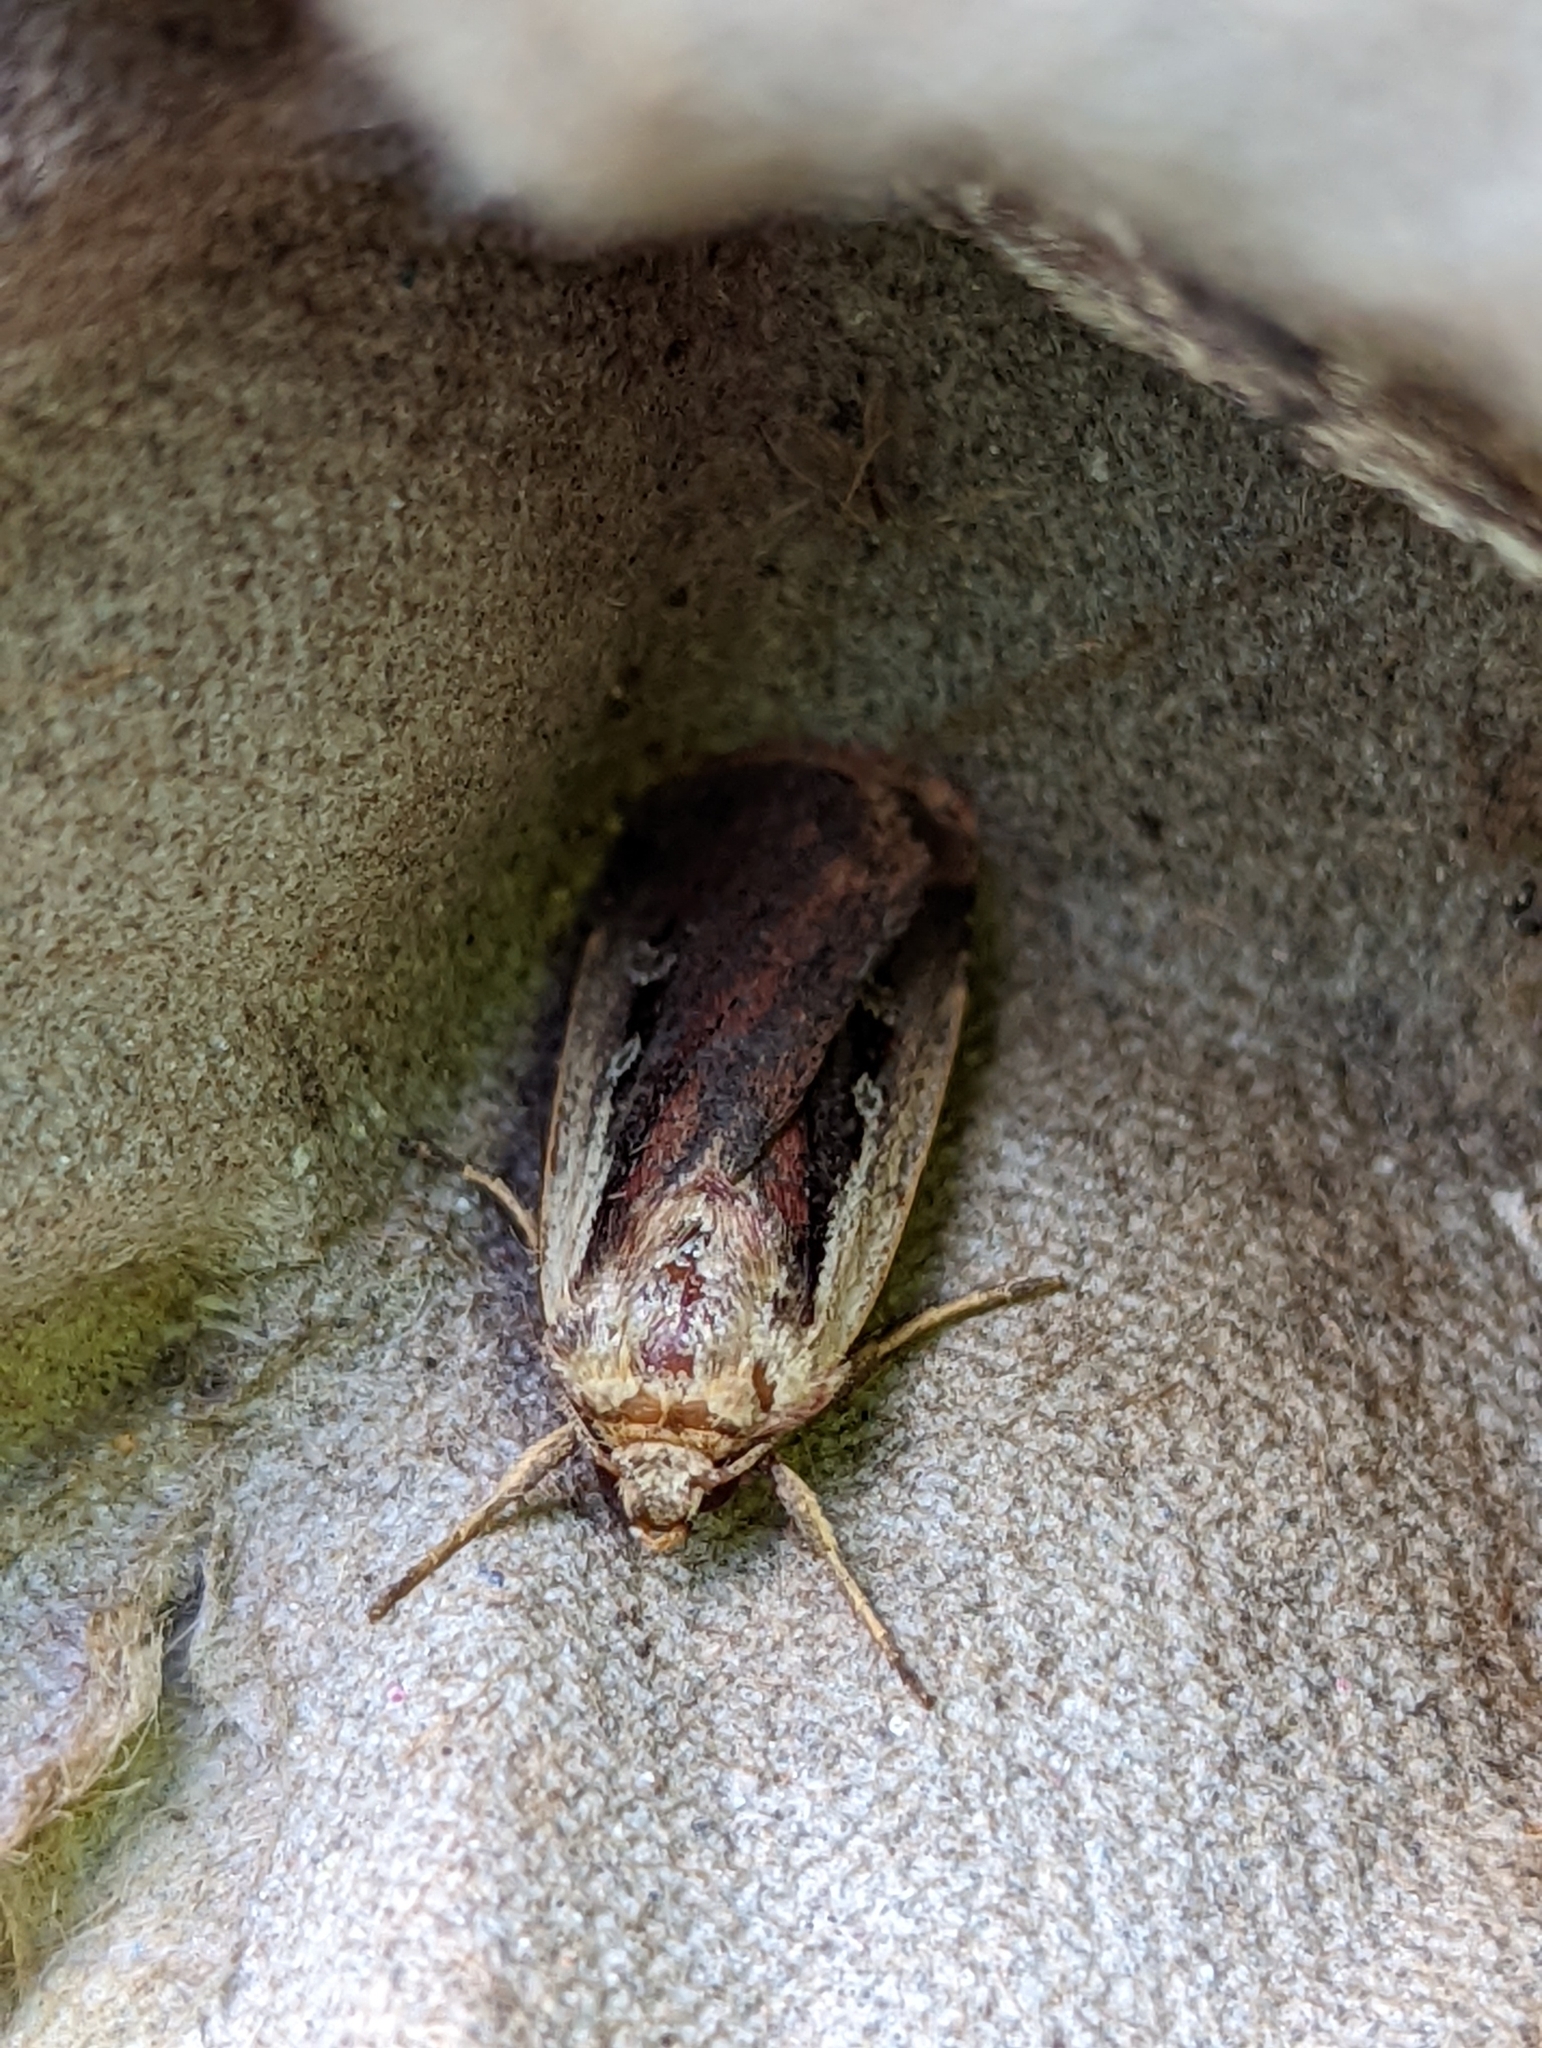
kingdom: Animalia
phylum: Arthropoda
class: Insecta
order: Lepidoptera
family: Noctuidae
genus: Ochropleura
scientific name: Ochropleura plecta
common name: Flame shoulder
